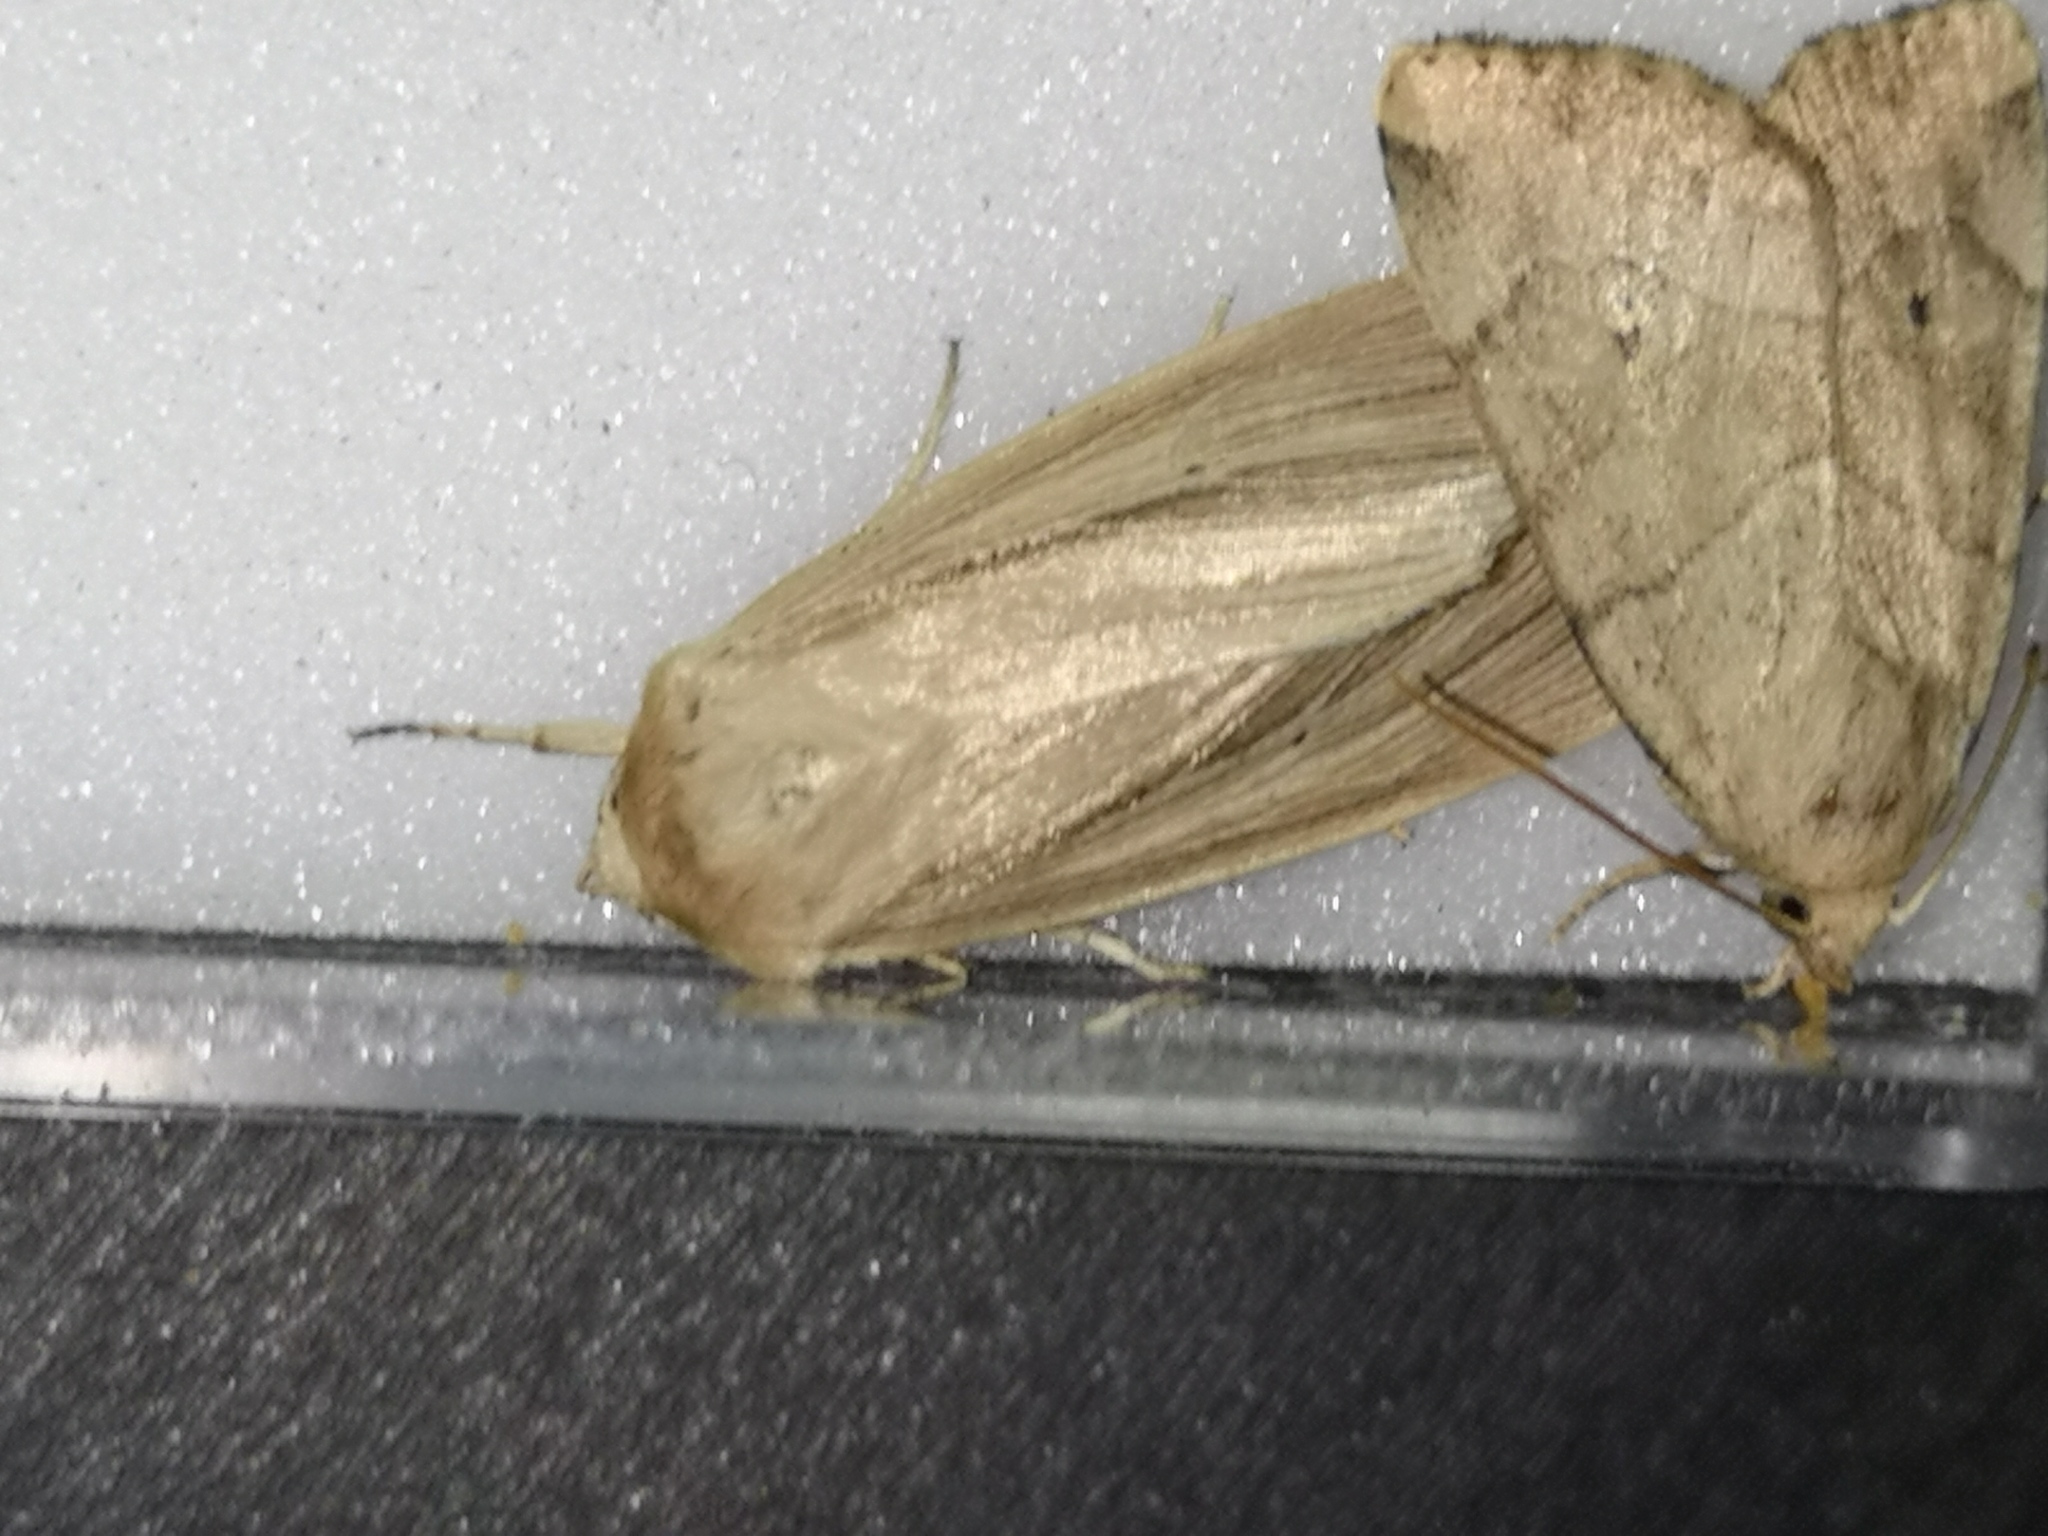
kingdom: Animalia
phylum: Arthropoda
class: Insecta
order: Lepidoptera
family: Noctuidae
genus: Mythimna
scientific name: Mythimna impura
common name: Smoky wainscot
